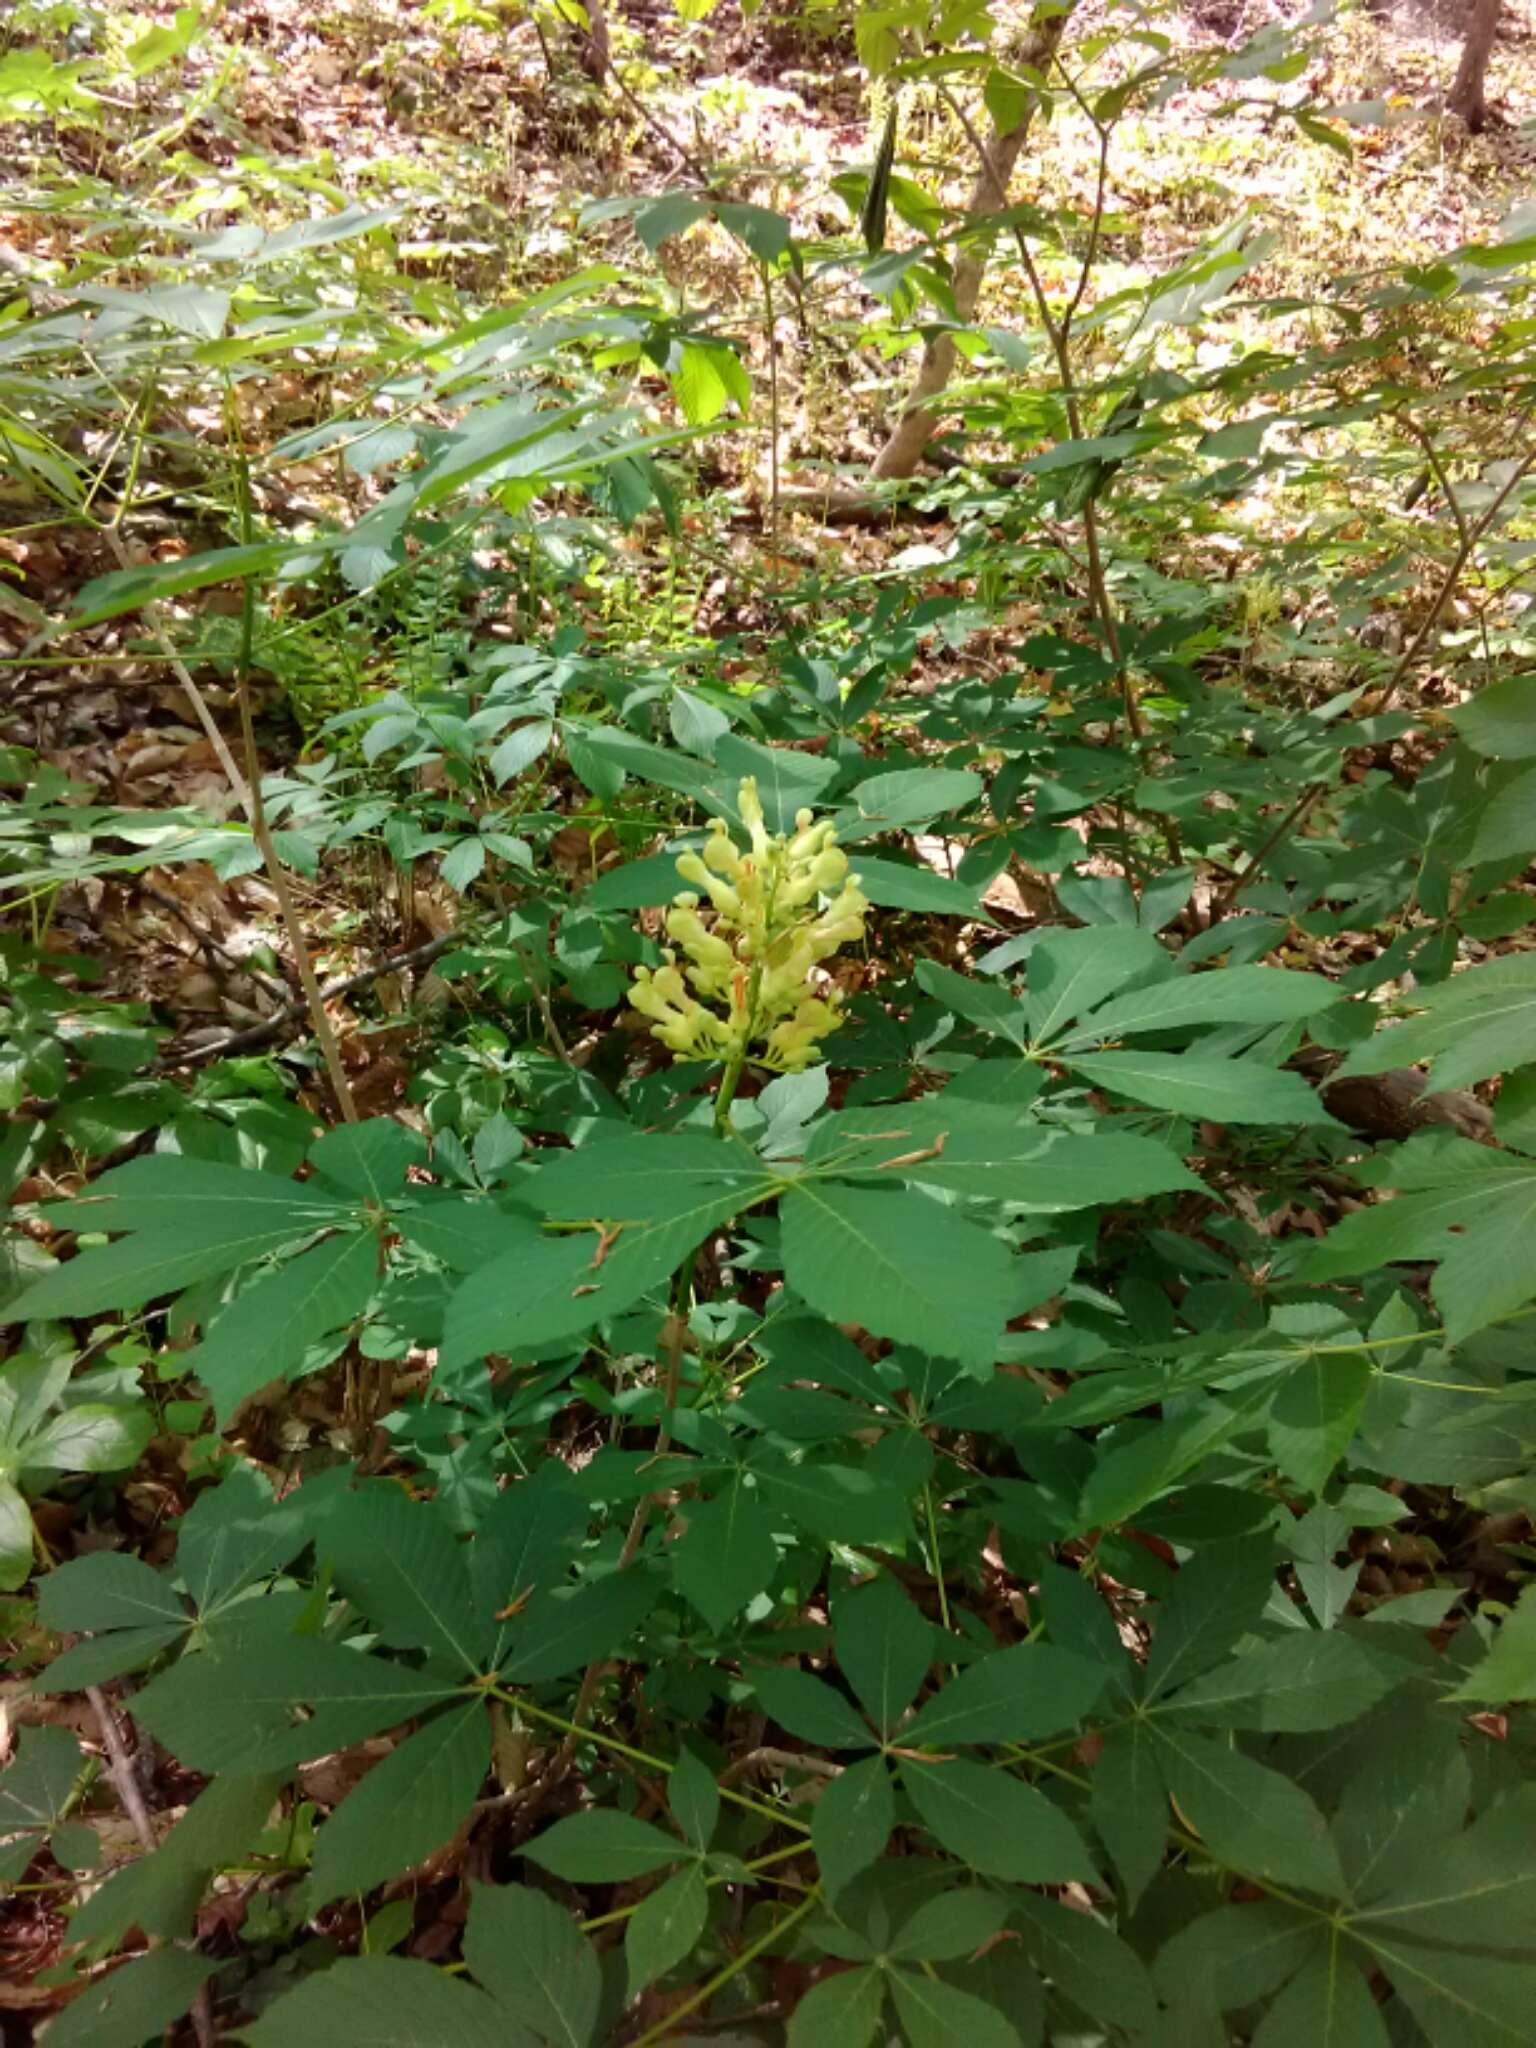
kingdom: Plantae
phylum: Tracheophyta
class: Magnoliopsida
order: Sapindales
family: Sapindaceae
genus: Aesculus
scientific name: Aesculus sylvatica
